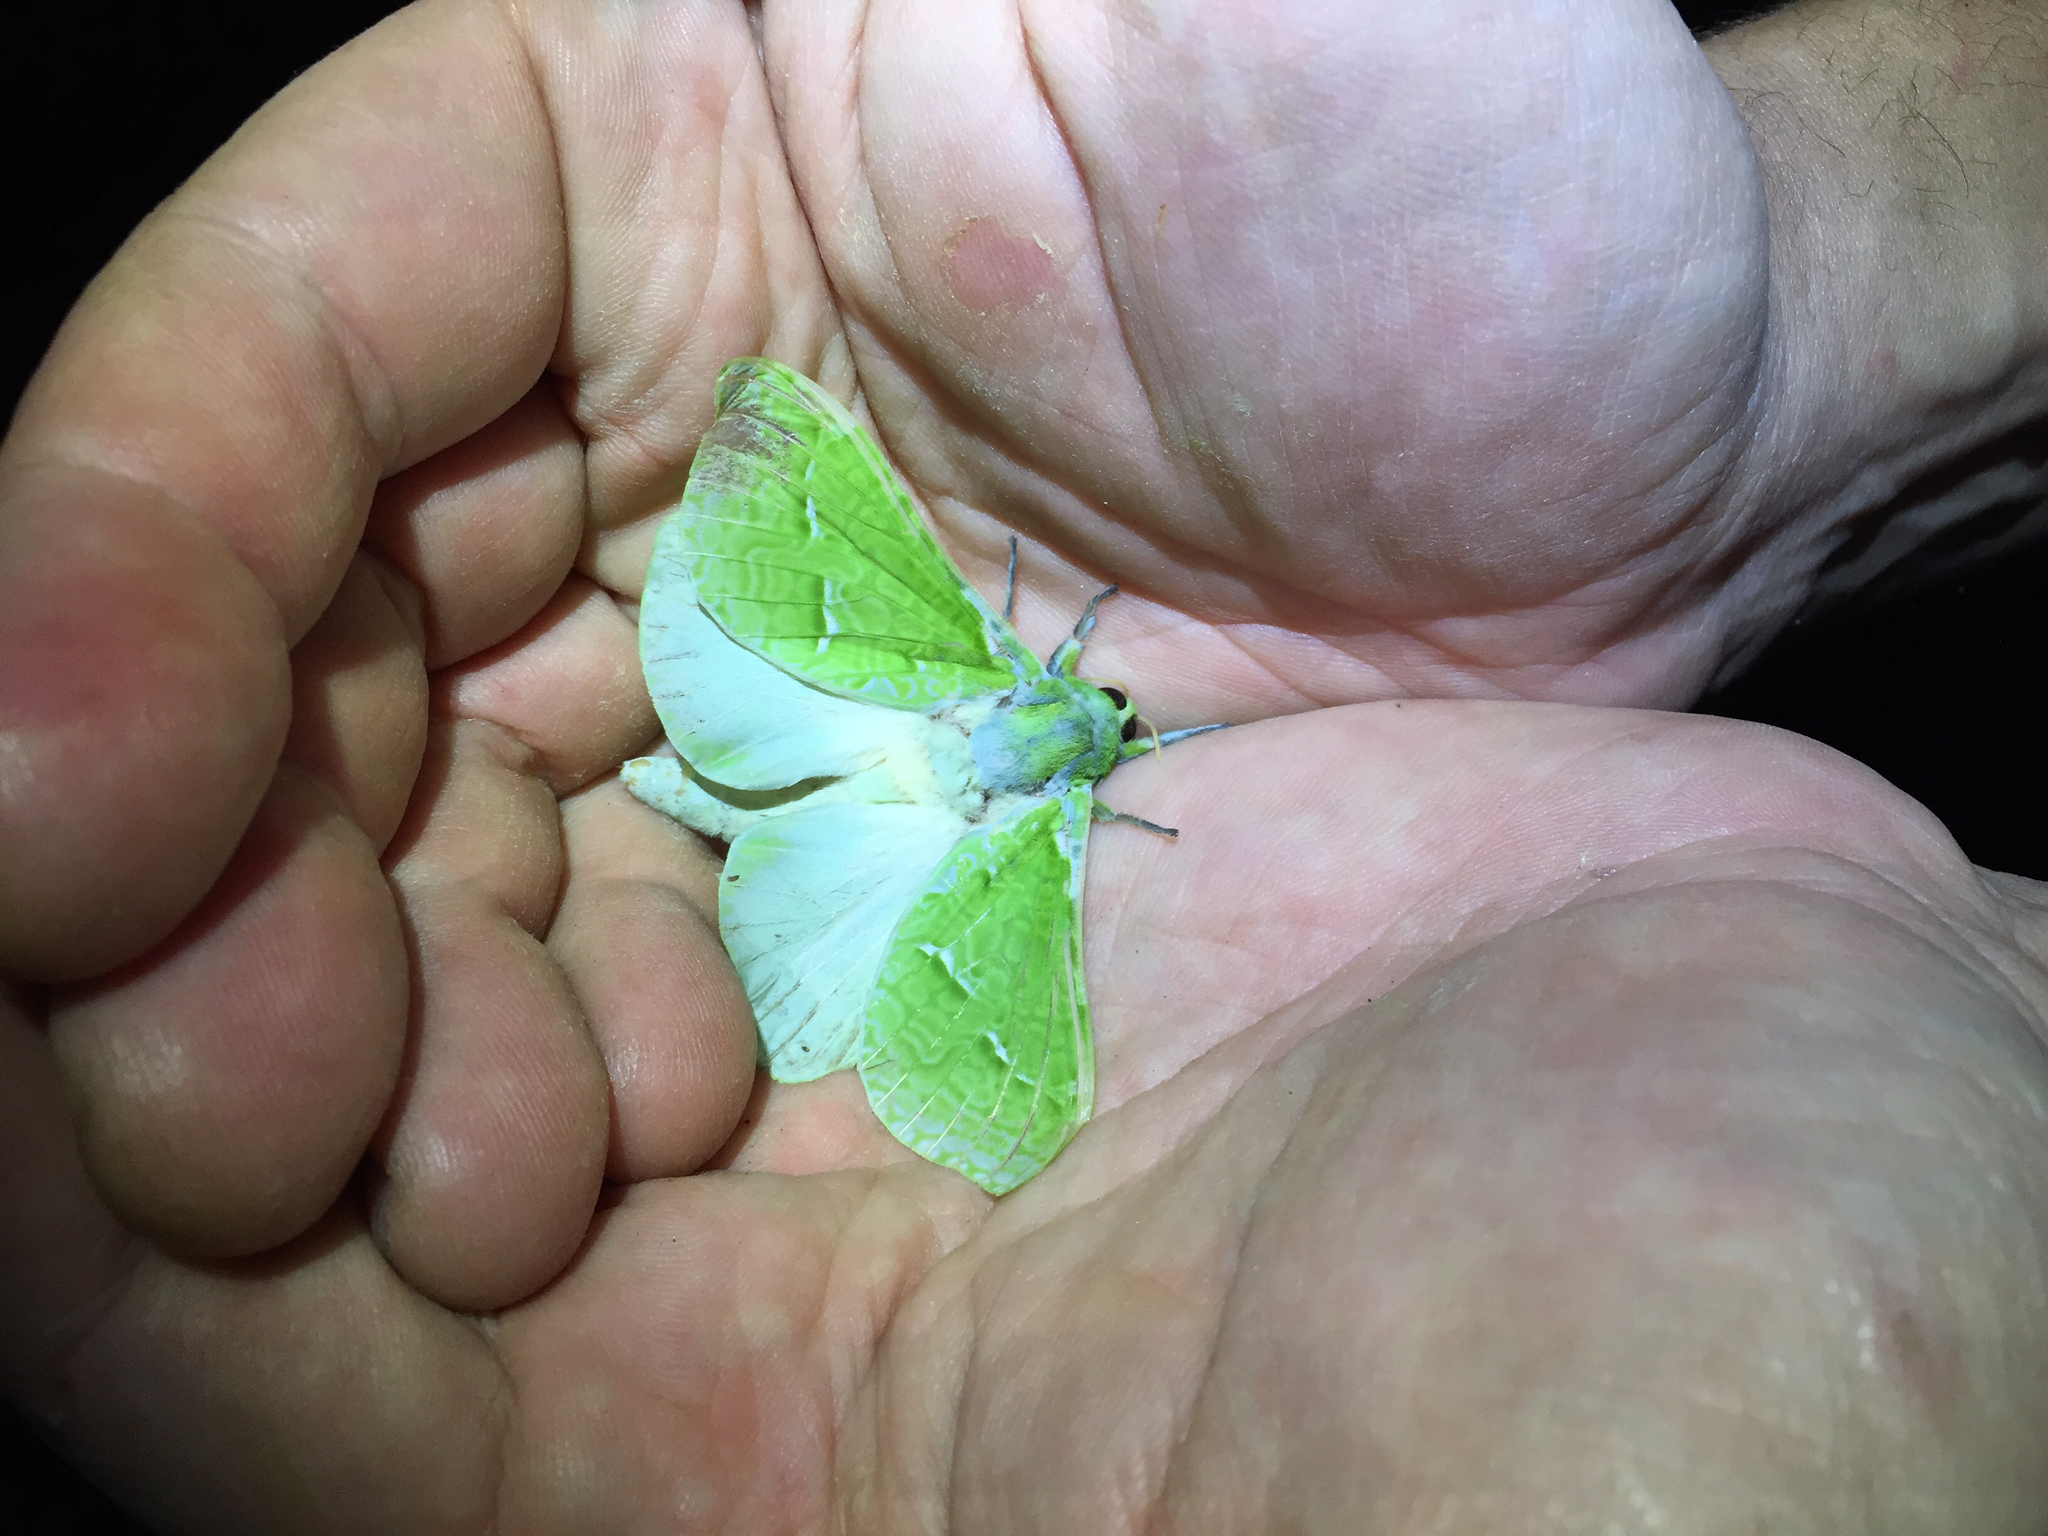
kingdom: Animalia
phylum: Arthropoda
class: Insecta
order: Lepidoptera
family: Hepialidae
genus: Aenetus
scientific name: Aenetus virescens
